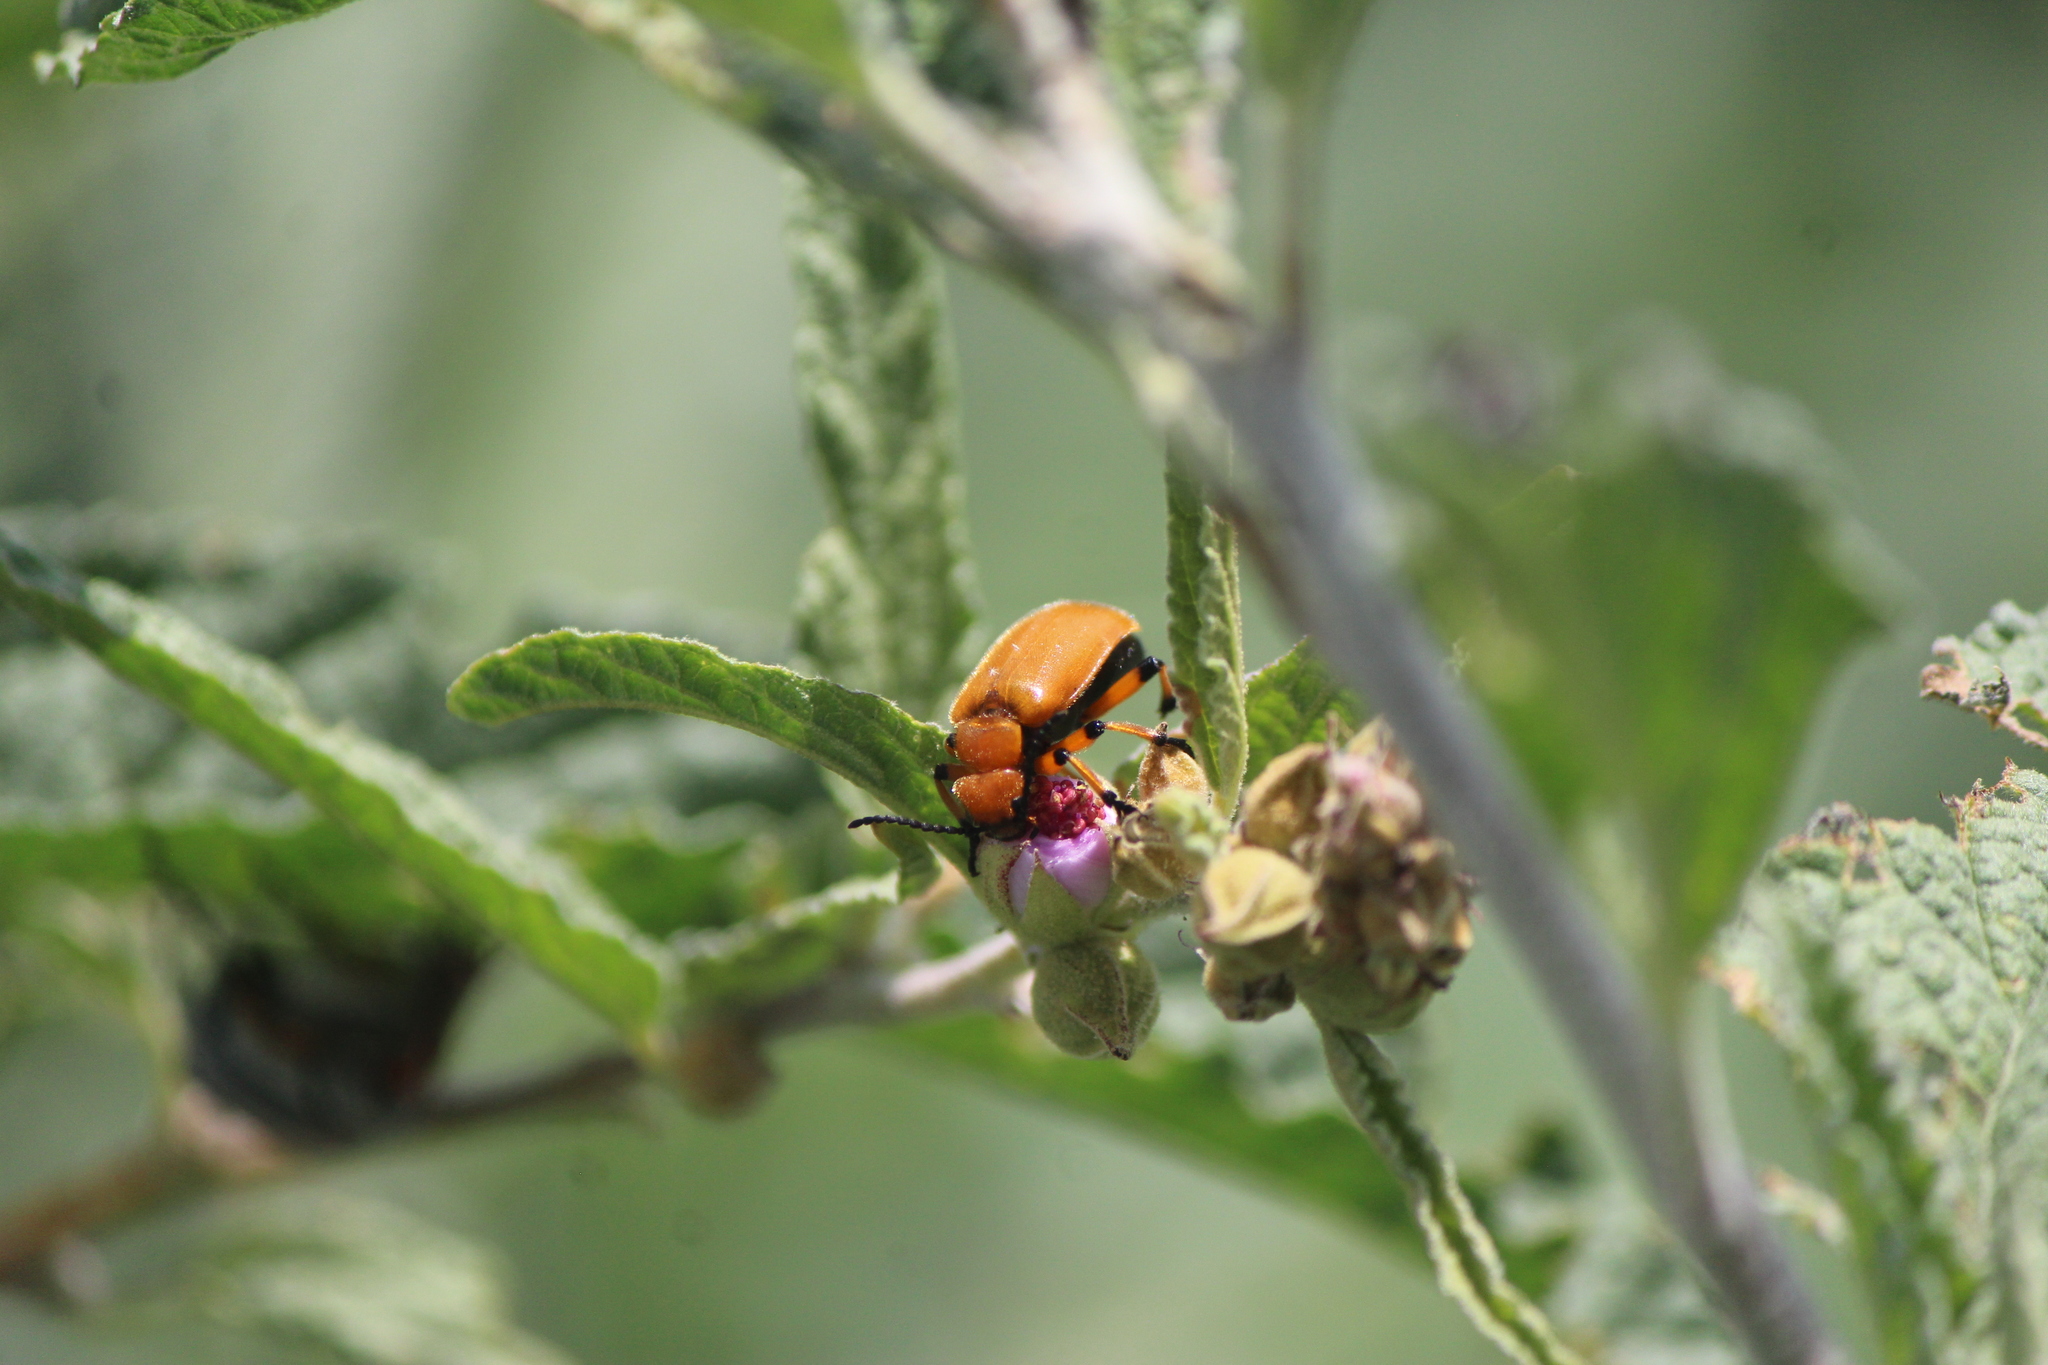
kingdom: Animalia
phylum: Arthropoda
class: Insecta
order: Coleoptera
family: Meloidae
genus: Tetraonyx
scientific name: Tetraonyx fulva
